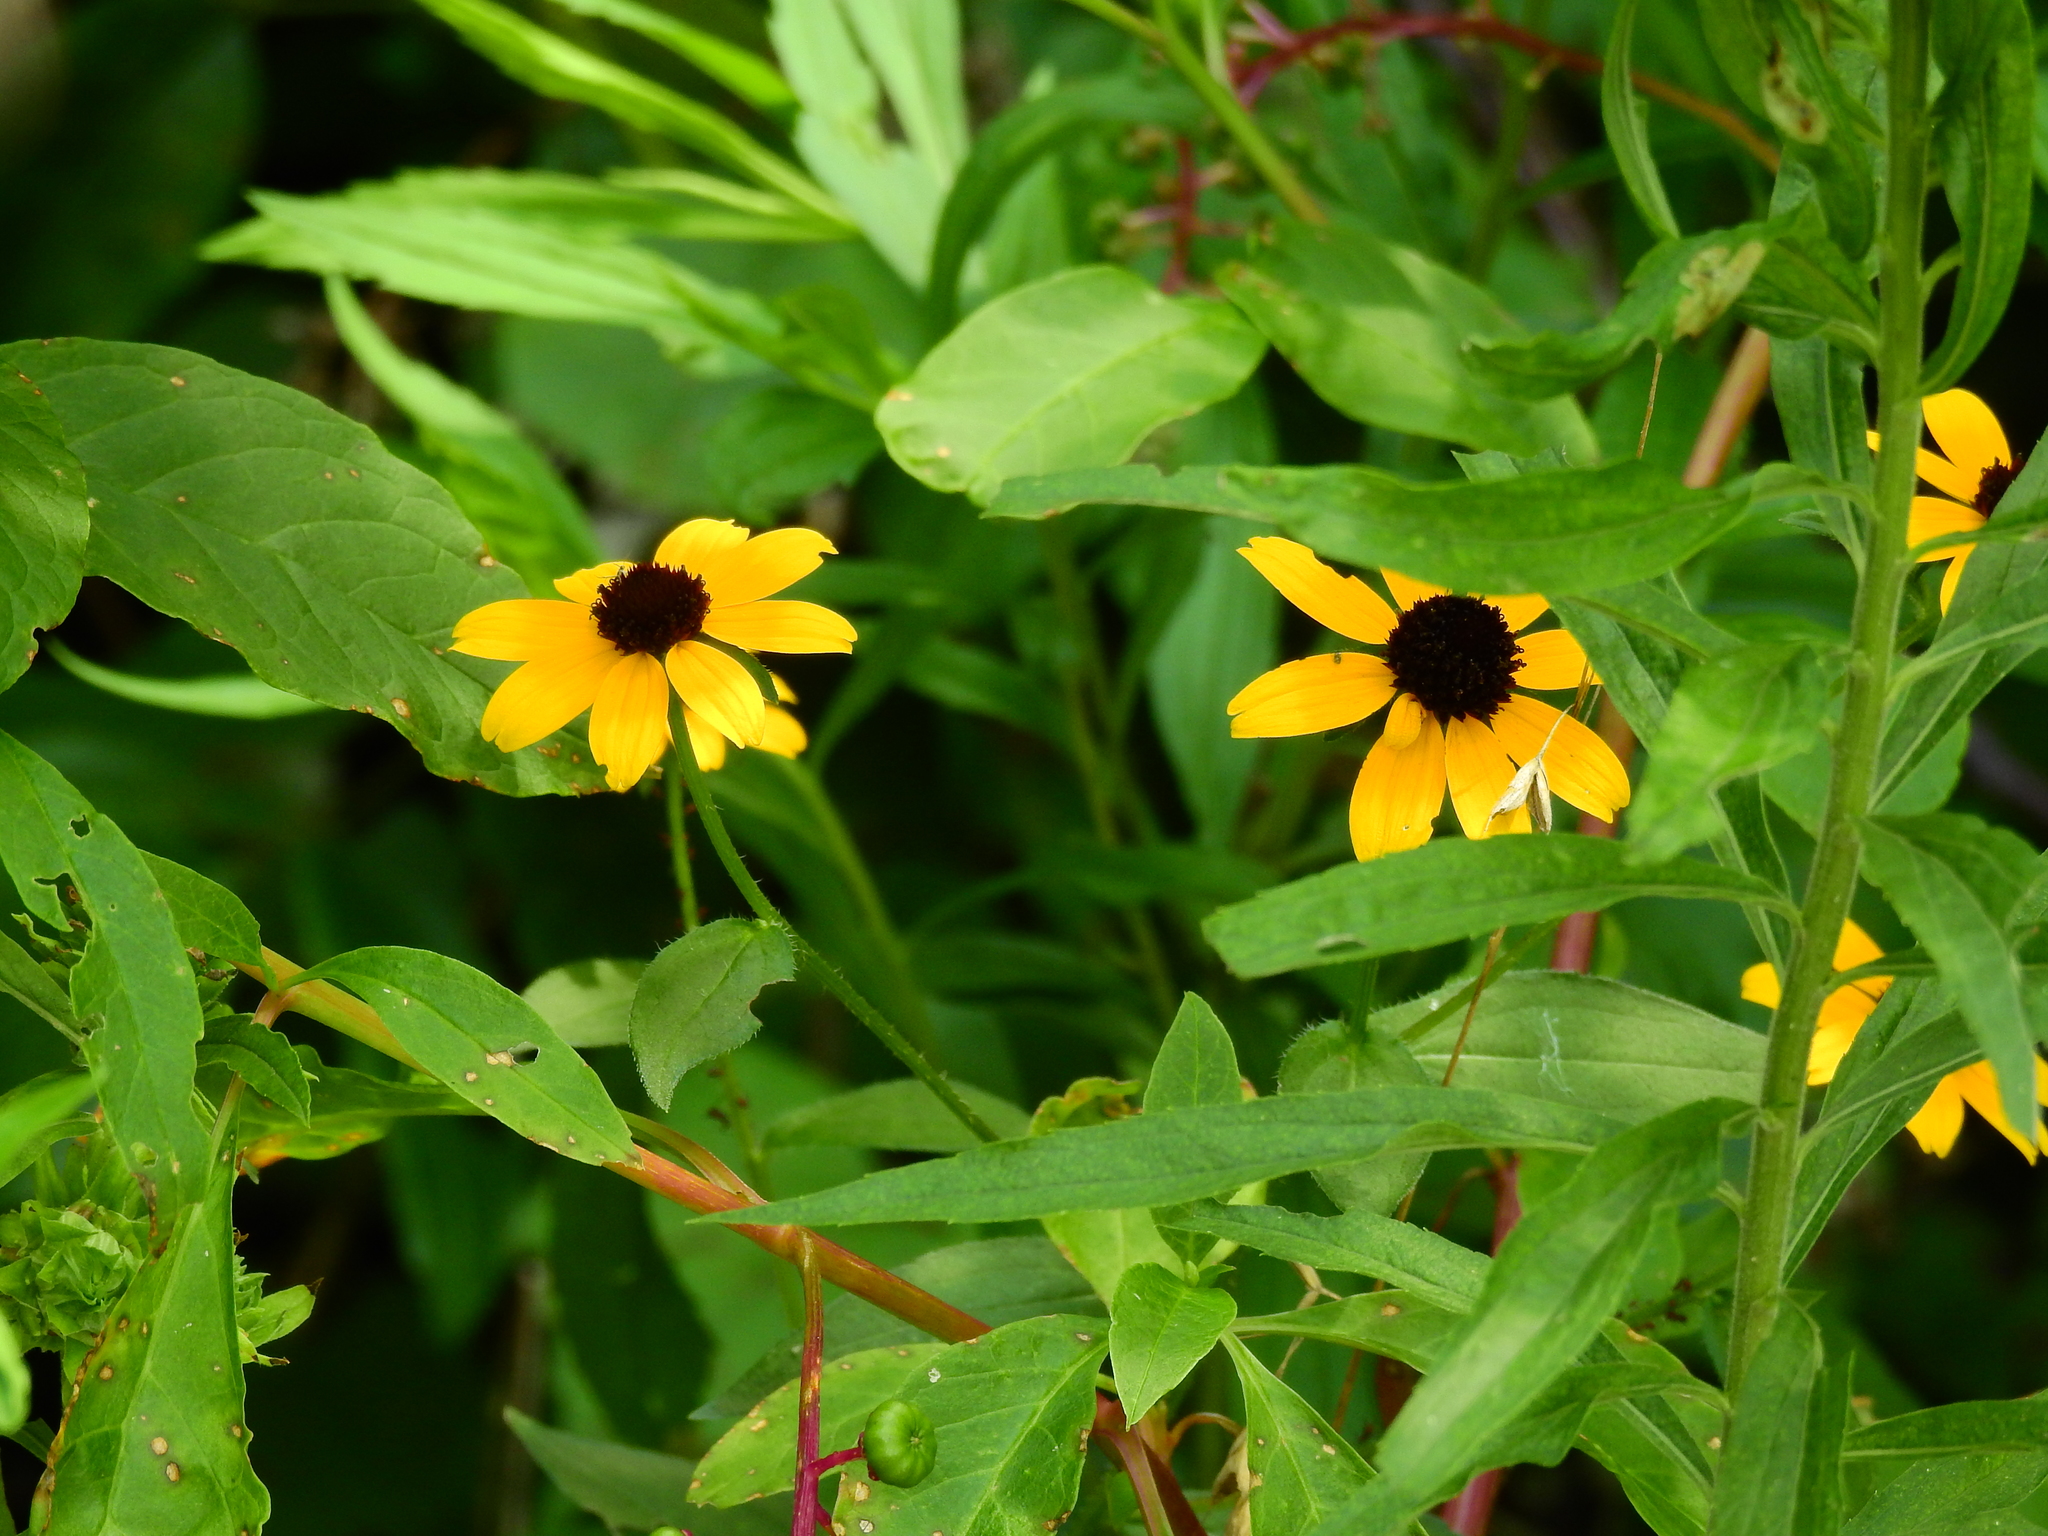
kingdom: Plantae
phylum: Tracheophyta
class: Magnoliopsida
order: Asterales
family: Asteraceae
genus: Rudbeckia
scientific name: Rudbeckia triloba
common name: Thin-leaved coneflower
